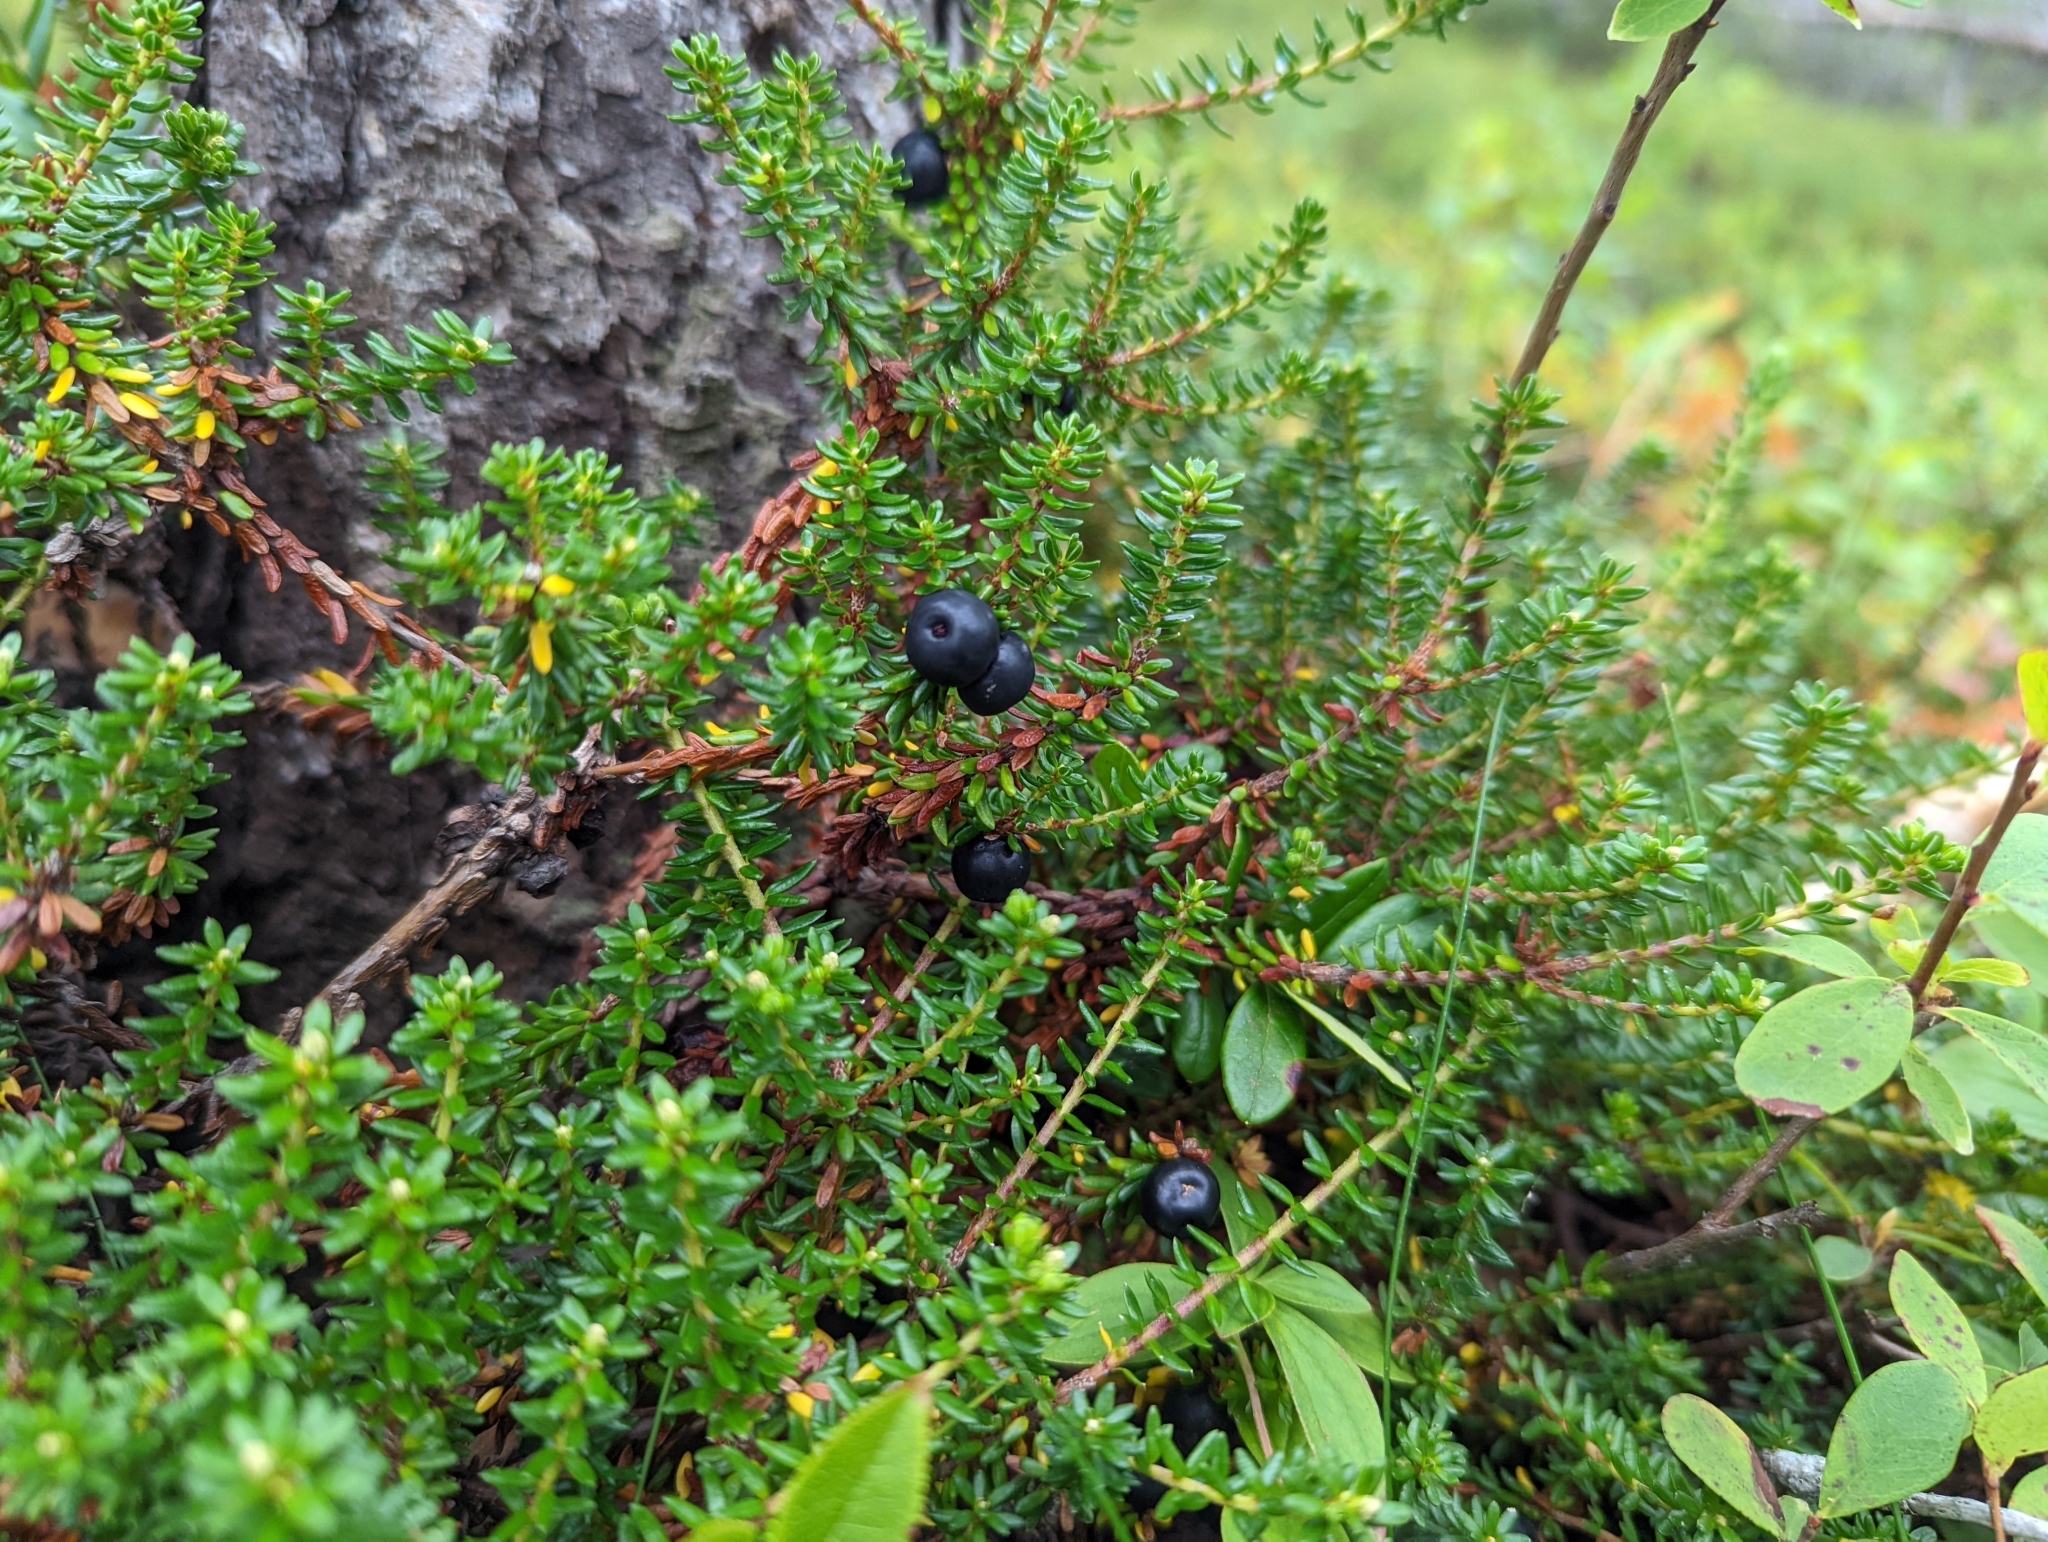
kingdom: Plantae
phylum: Tracheophyta
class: Magnoliopsida
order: Ericales
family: Ericaceae
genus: Empetrum
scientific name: Empetrum nigrum
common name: Black crowberry
